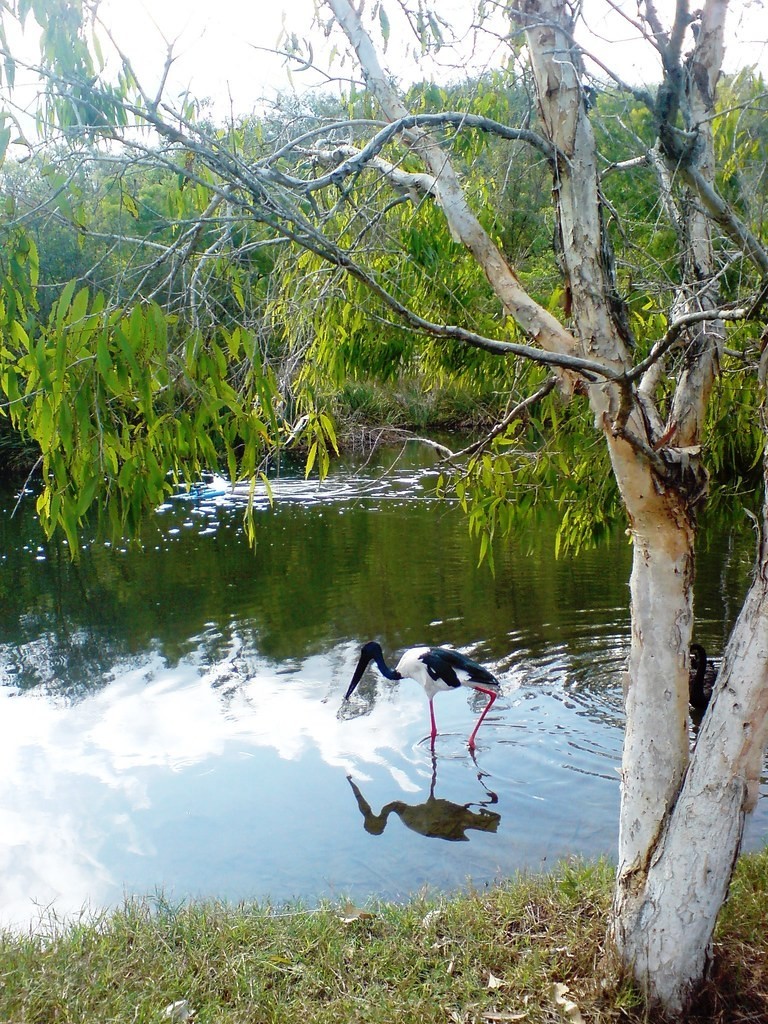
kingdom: Animalia
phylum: Chordata
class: Aves
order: Ciconiiformes
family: Ciconiidae
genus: Ephippiorhynchus
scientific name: Ephippiorhynchus asiaticus
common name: Black-necked stork
